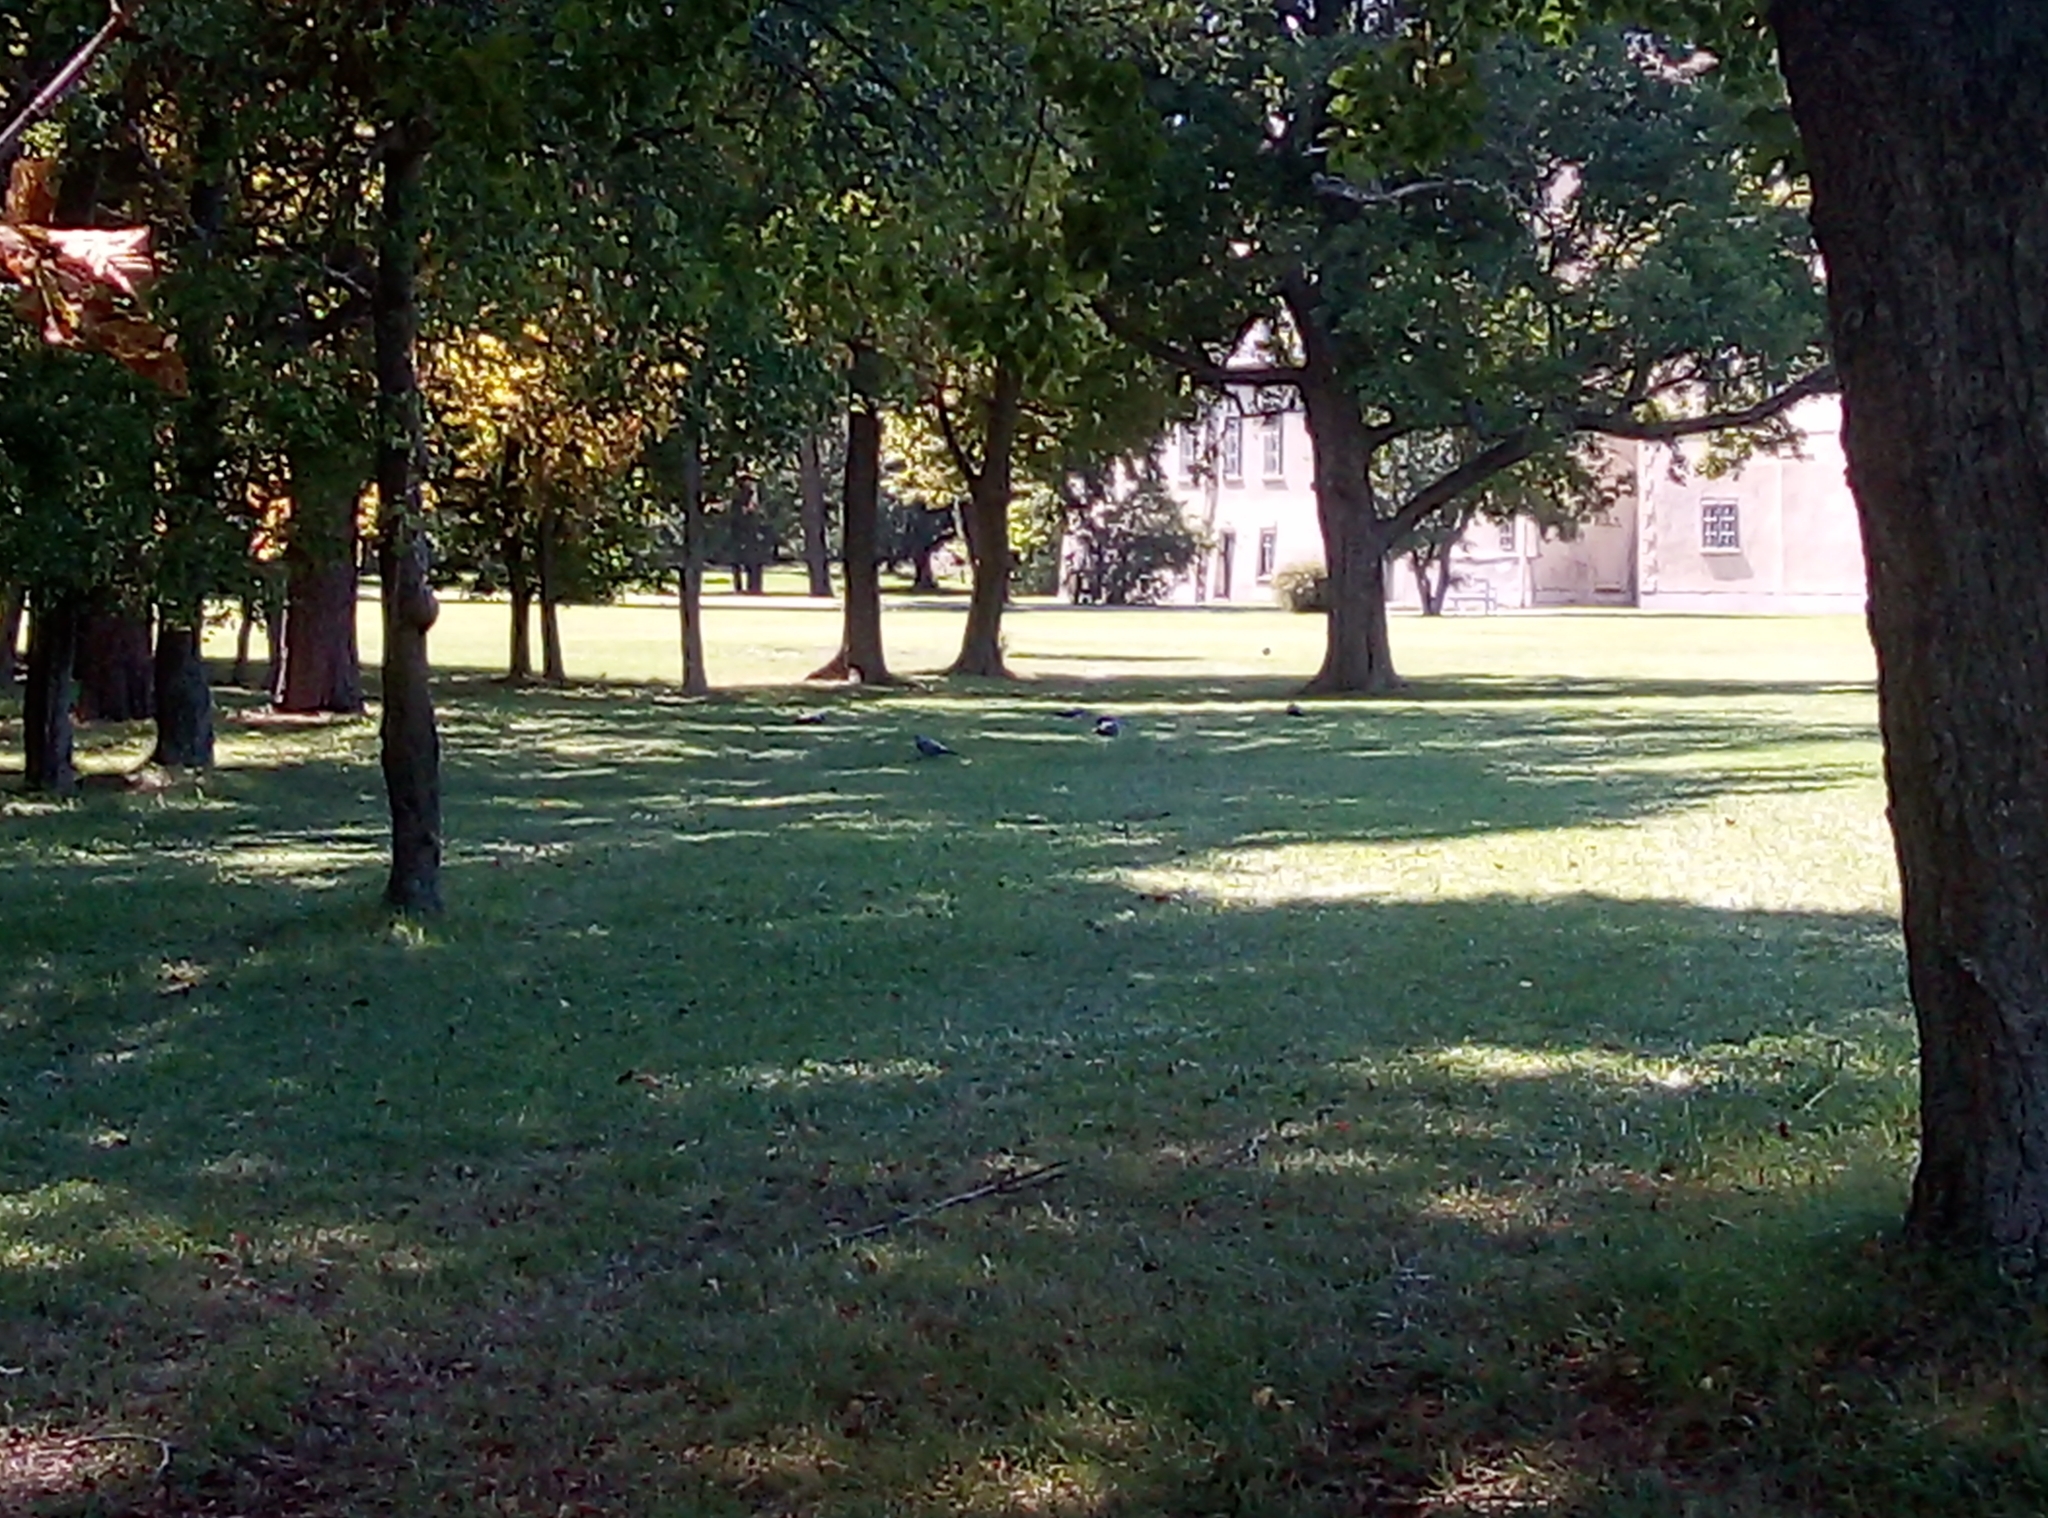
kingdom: Animalia
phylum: Chordata
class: Aves
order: Columbiformes
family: Columbidae
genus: Columba
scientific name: Columba palumbus
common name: Common wood pigeon
